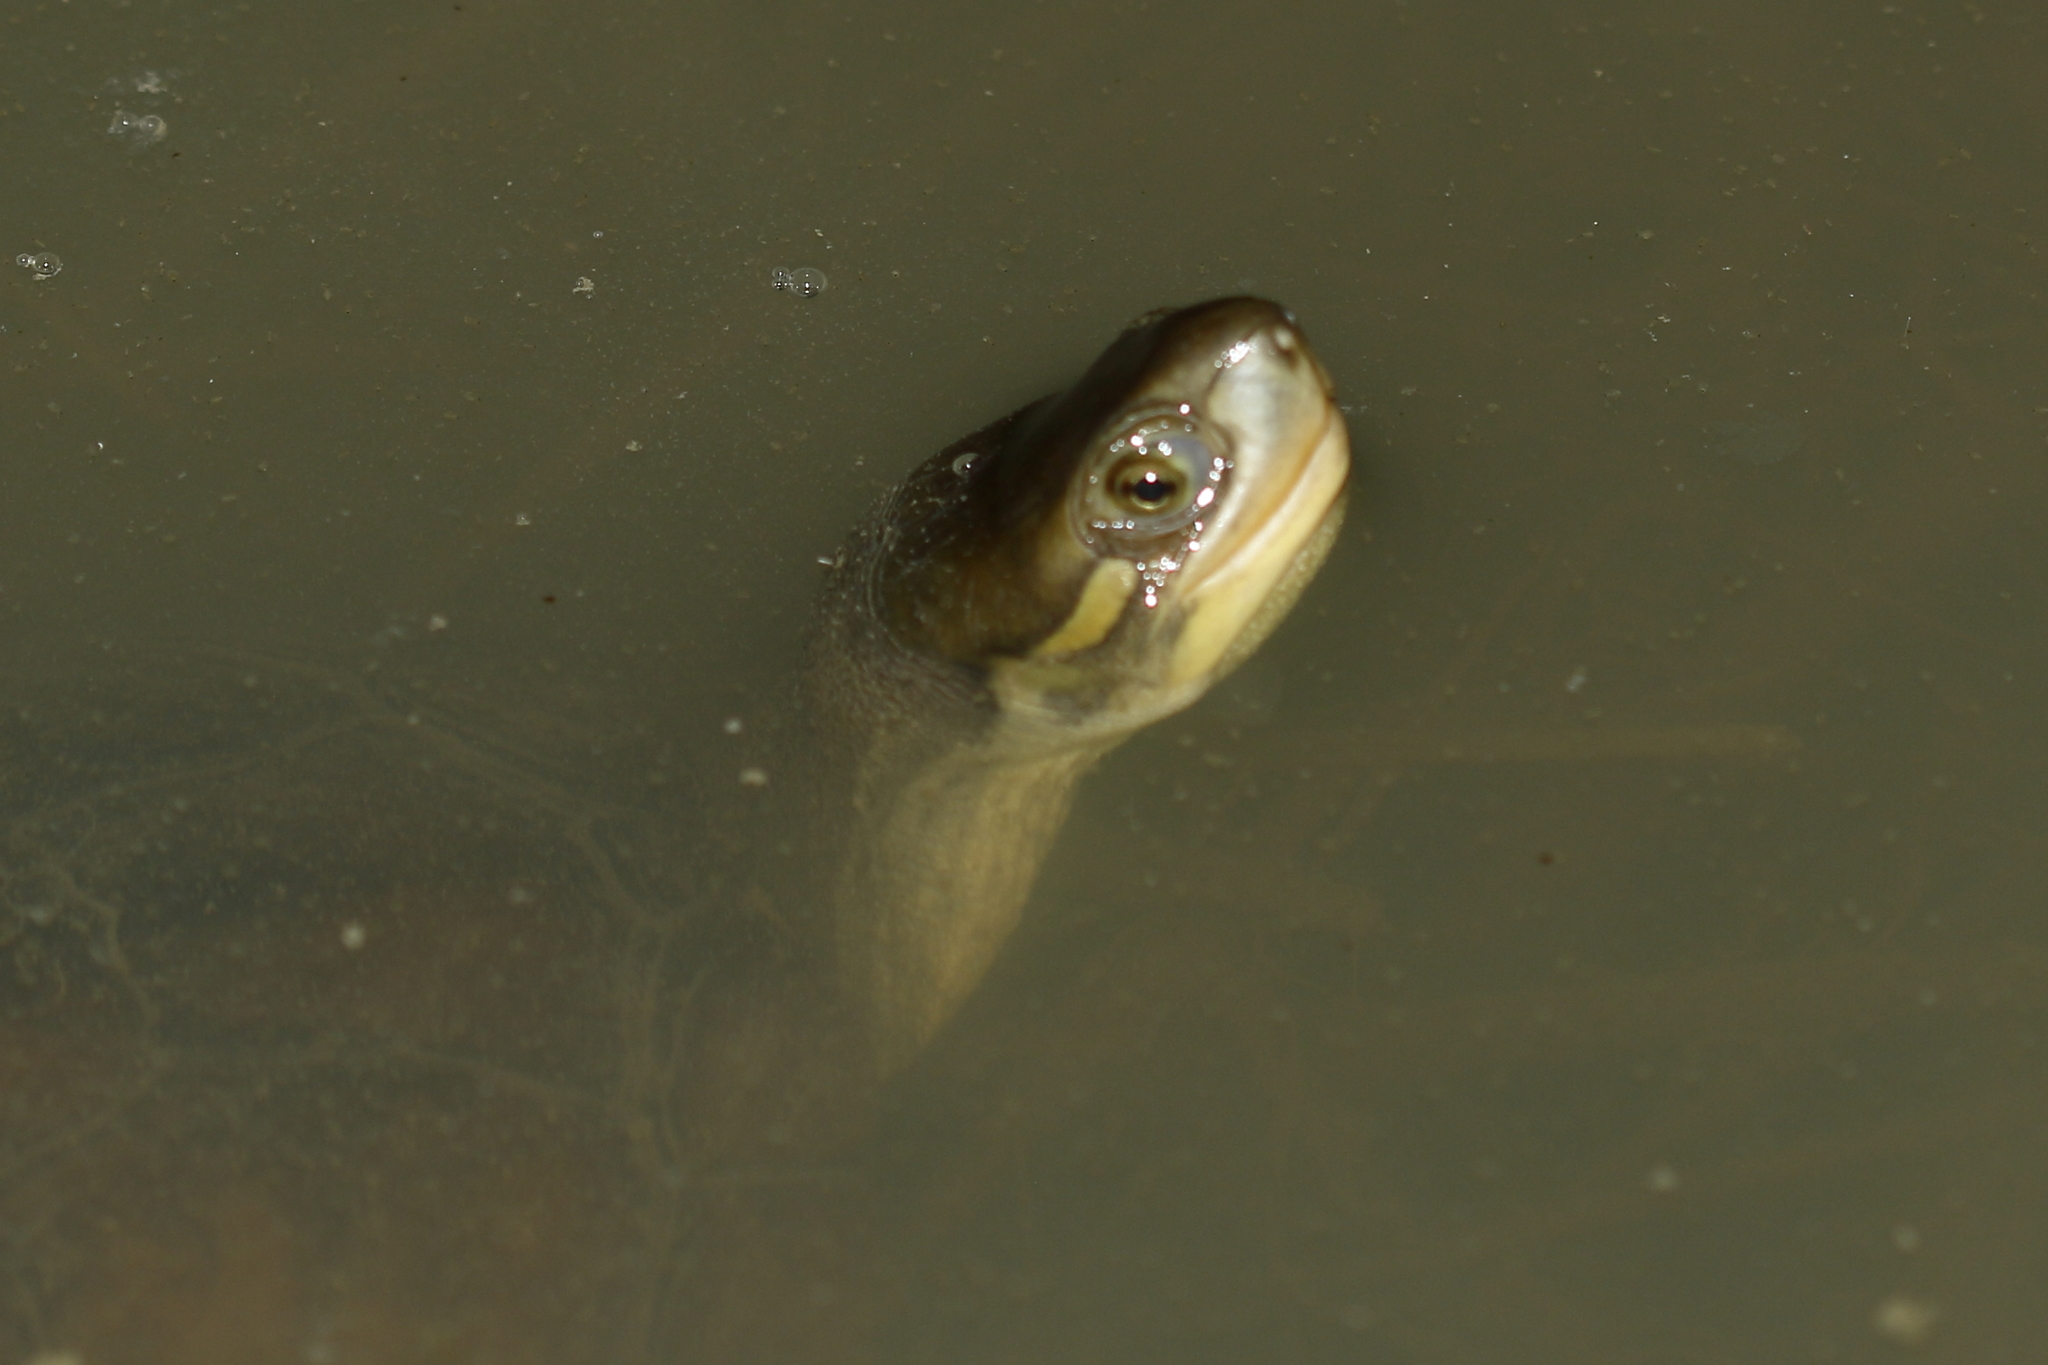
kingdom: Animalia
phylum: Chordata
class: Testudines
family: Geoemydidae
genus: Mauremys
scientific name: Mauremys mutica
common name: Yellow pond turtle
